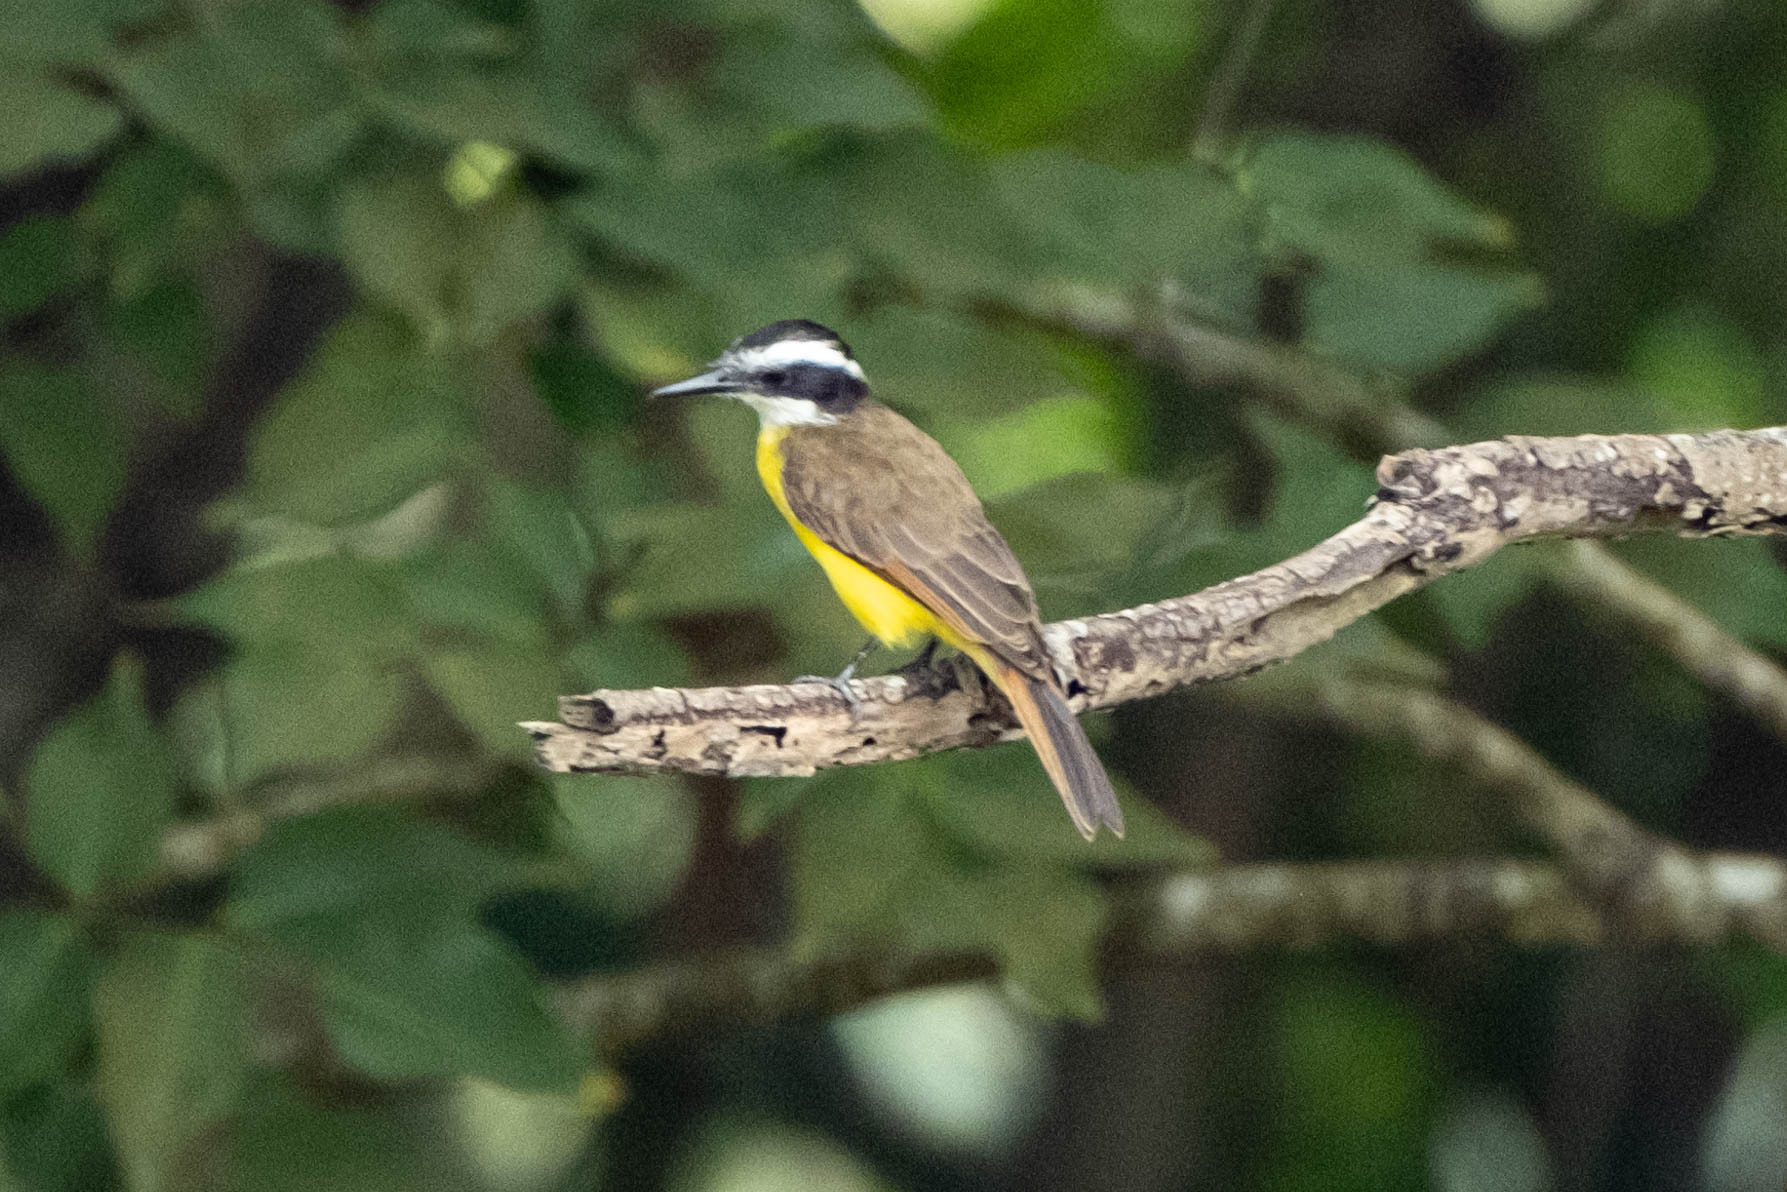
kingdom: Animalia
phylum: Chordata
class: Aves
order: Passeriformes
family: Tyrannidae
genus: Pitangus
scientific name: Pitangus lictor
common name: Lesser kiskadee
